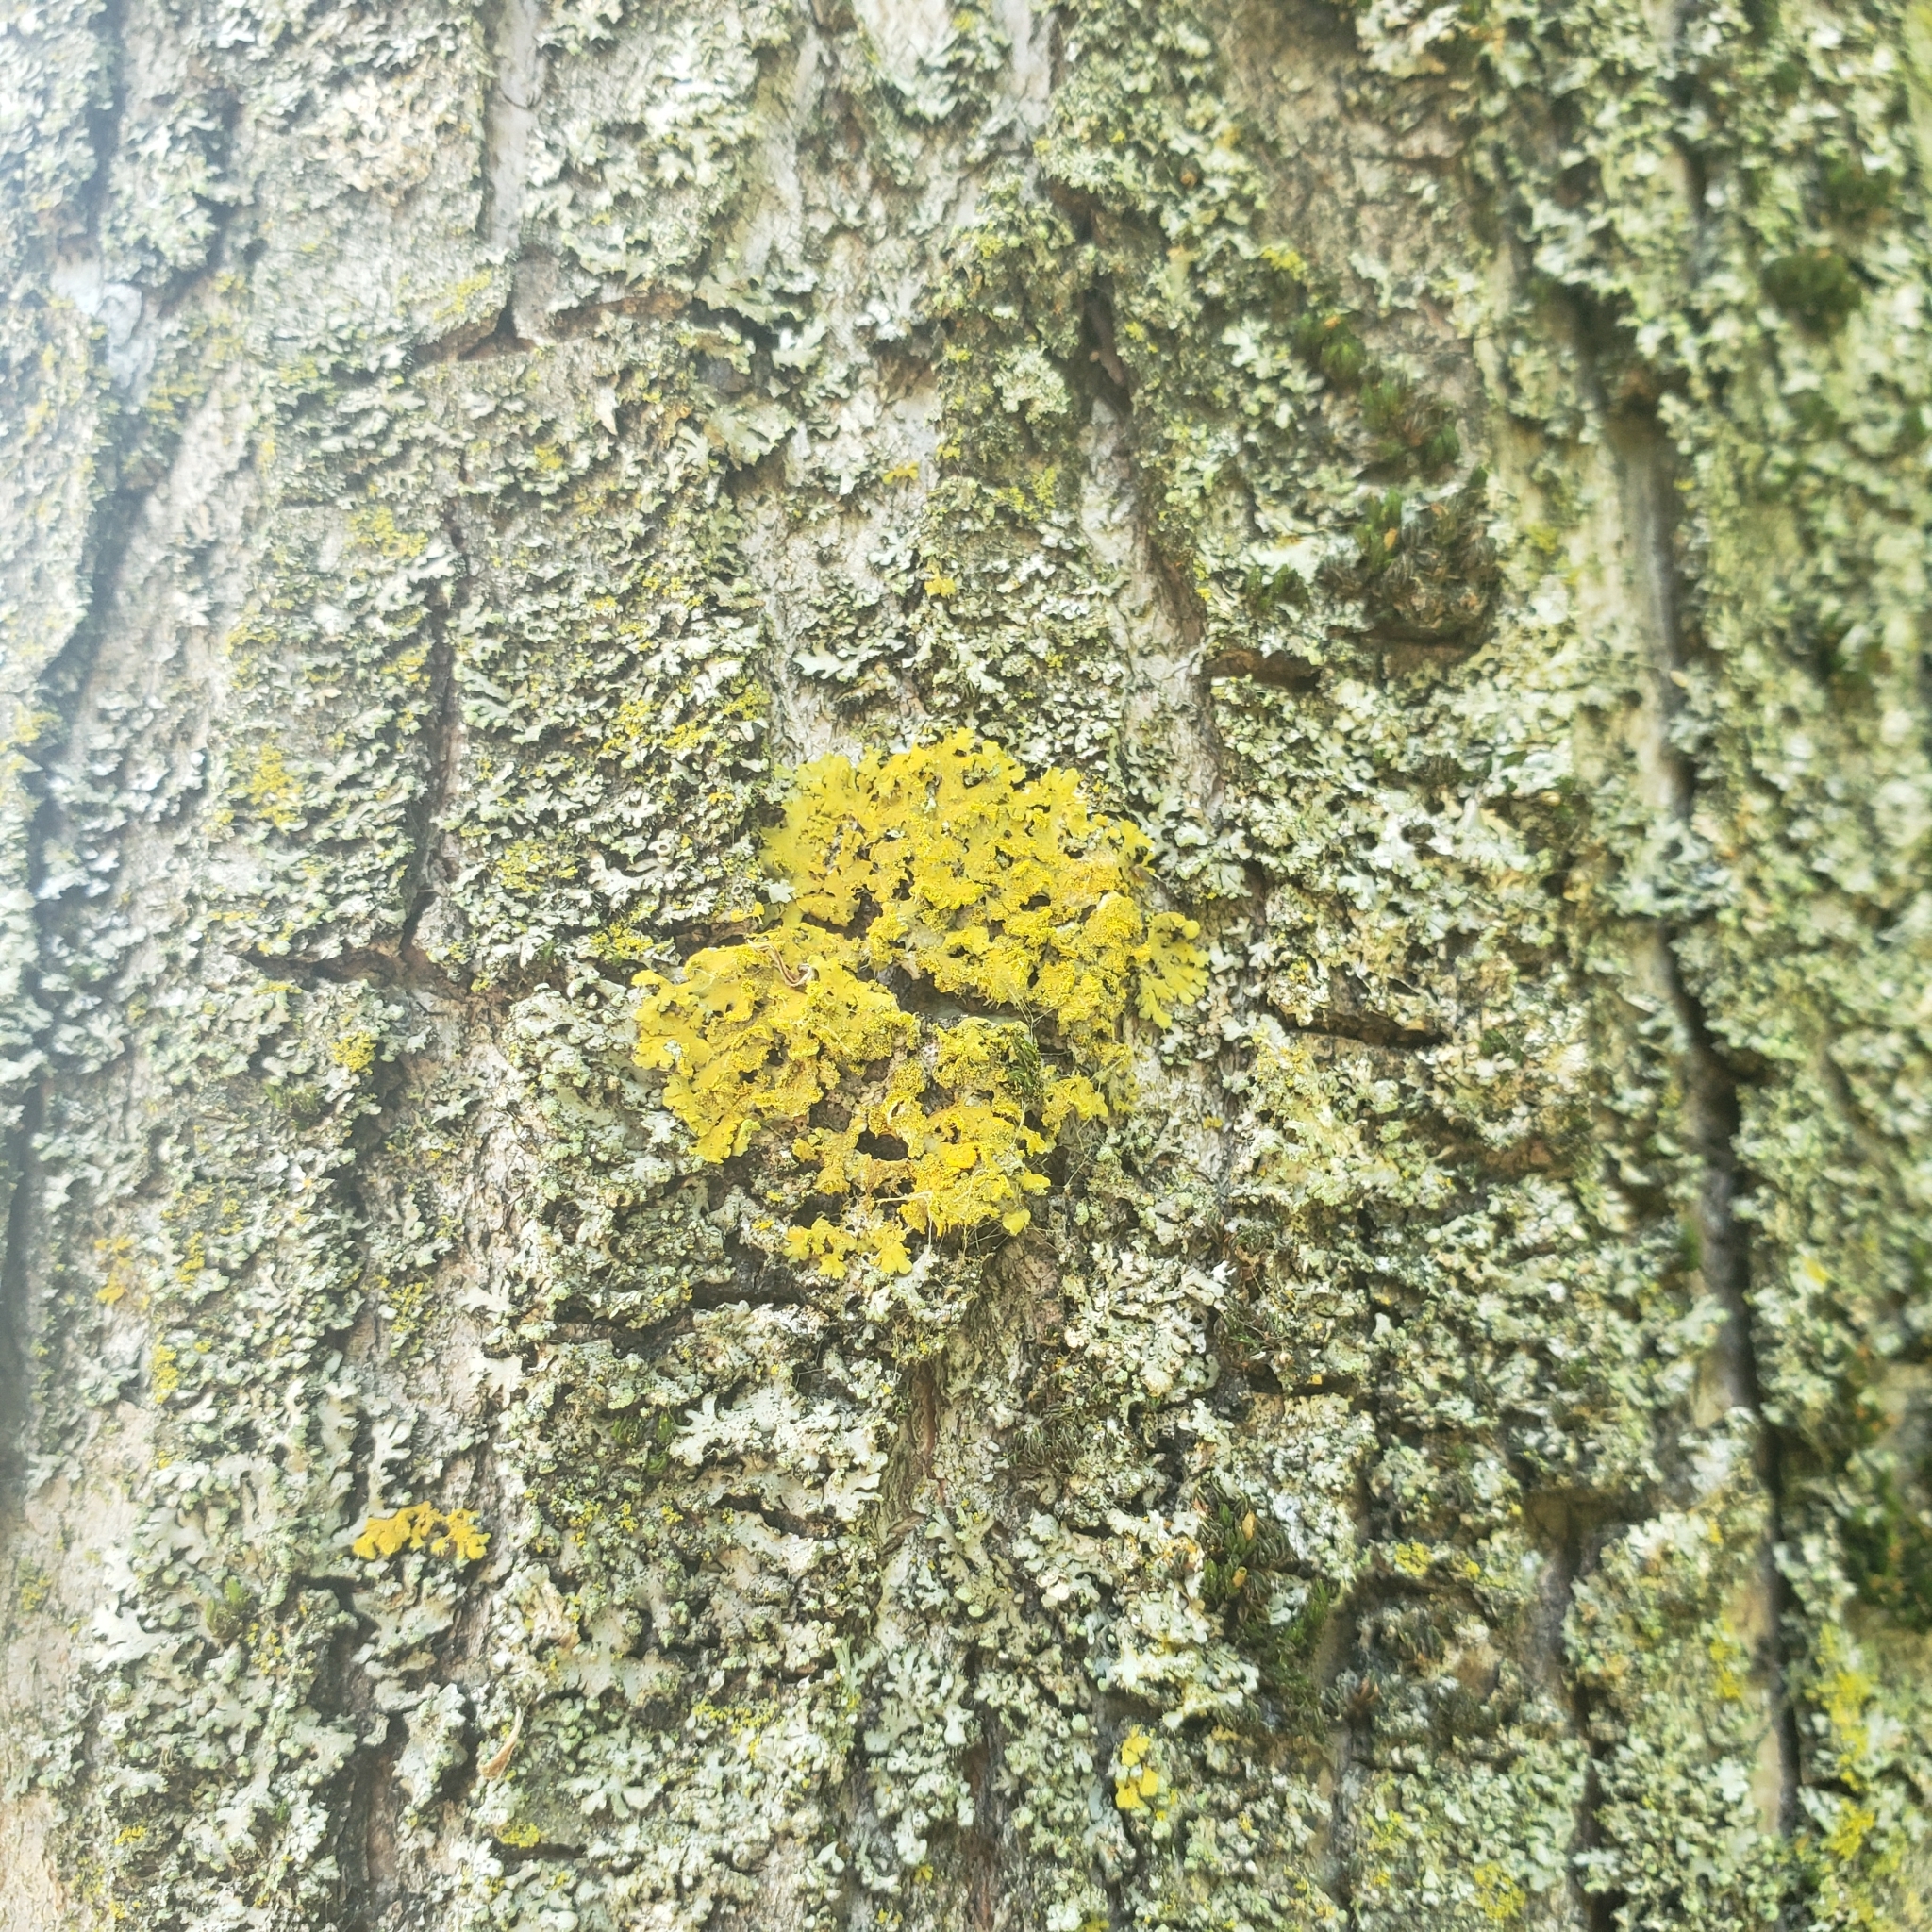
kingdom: Fungi
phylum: Ascomycota
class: Candelariomycetes
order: Candelariales
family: Candelariaceae
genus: Candelaria
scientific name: Candelaria concolor
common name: Candleflame lichen
